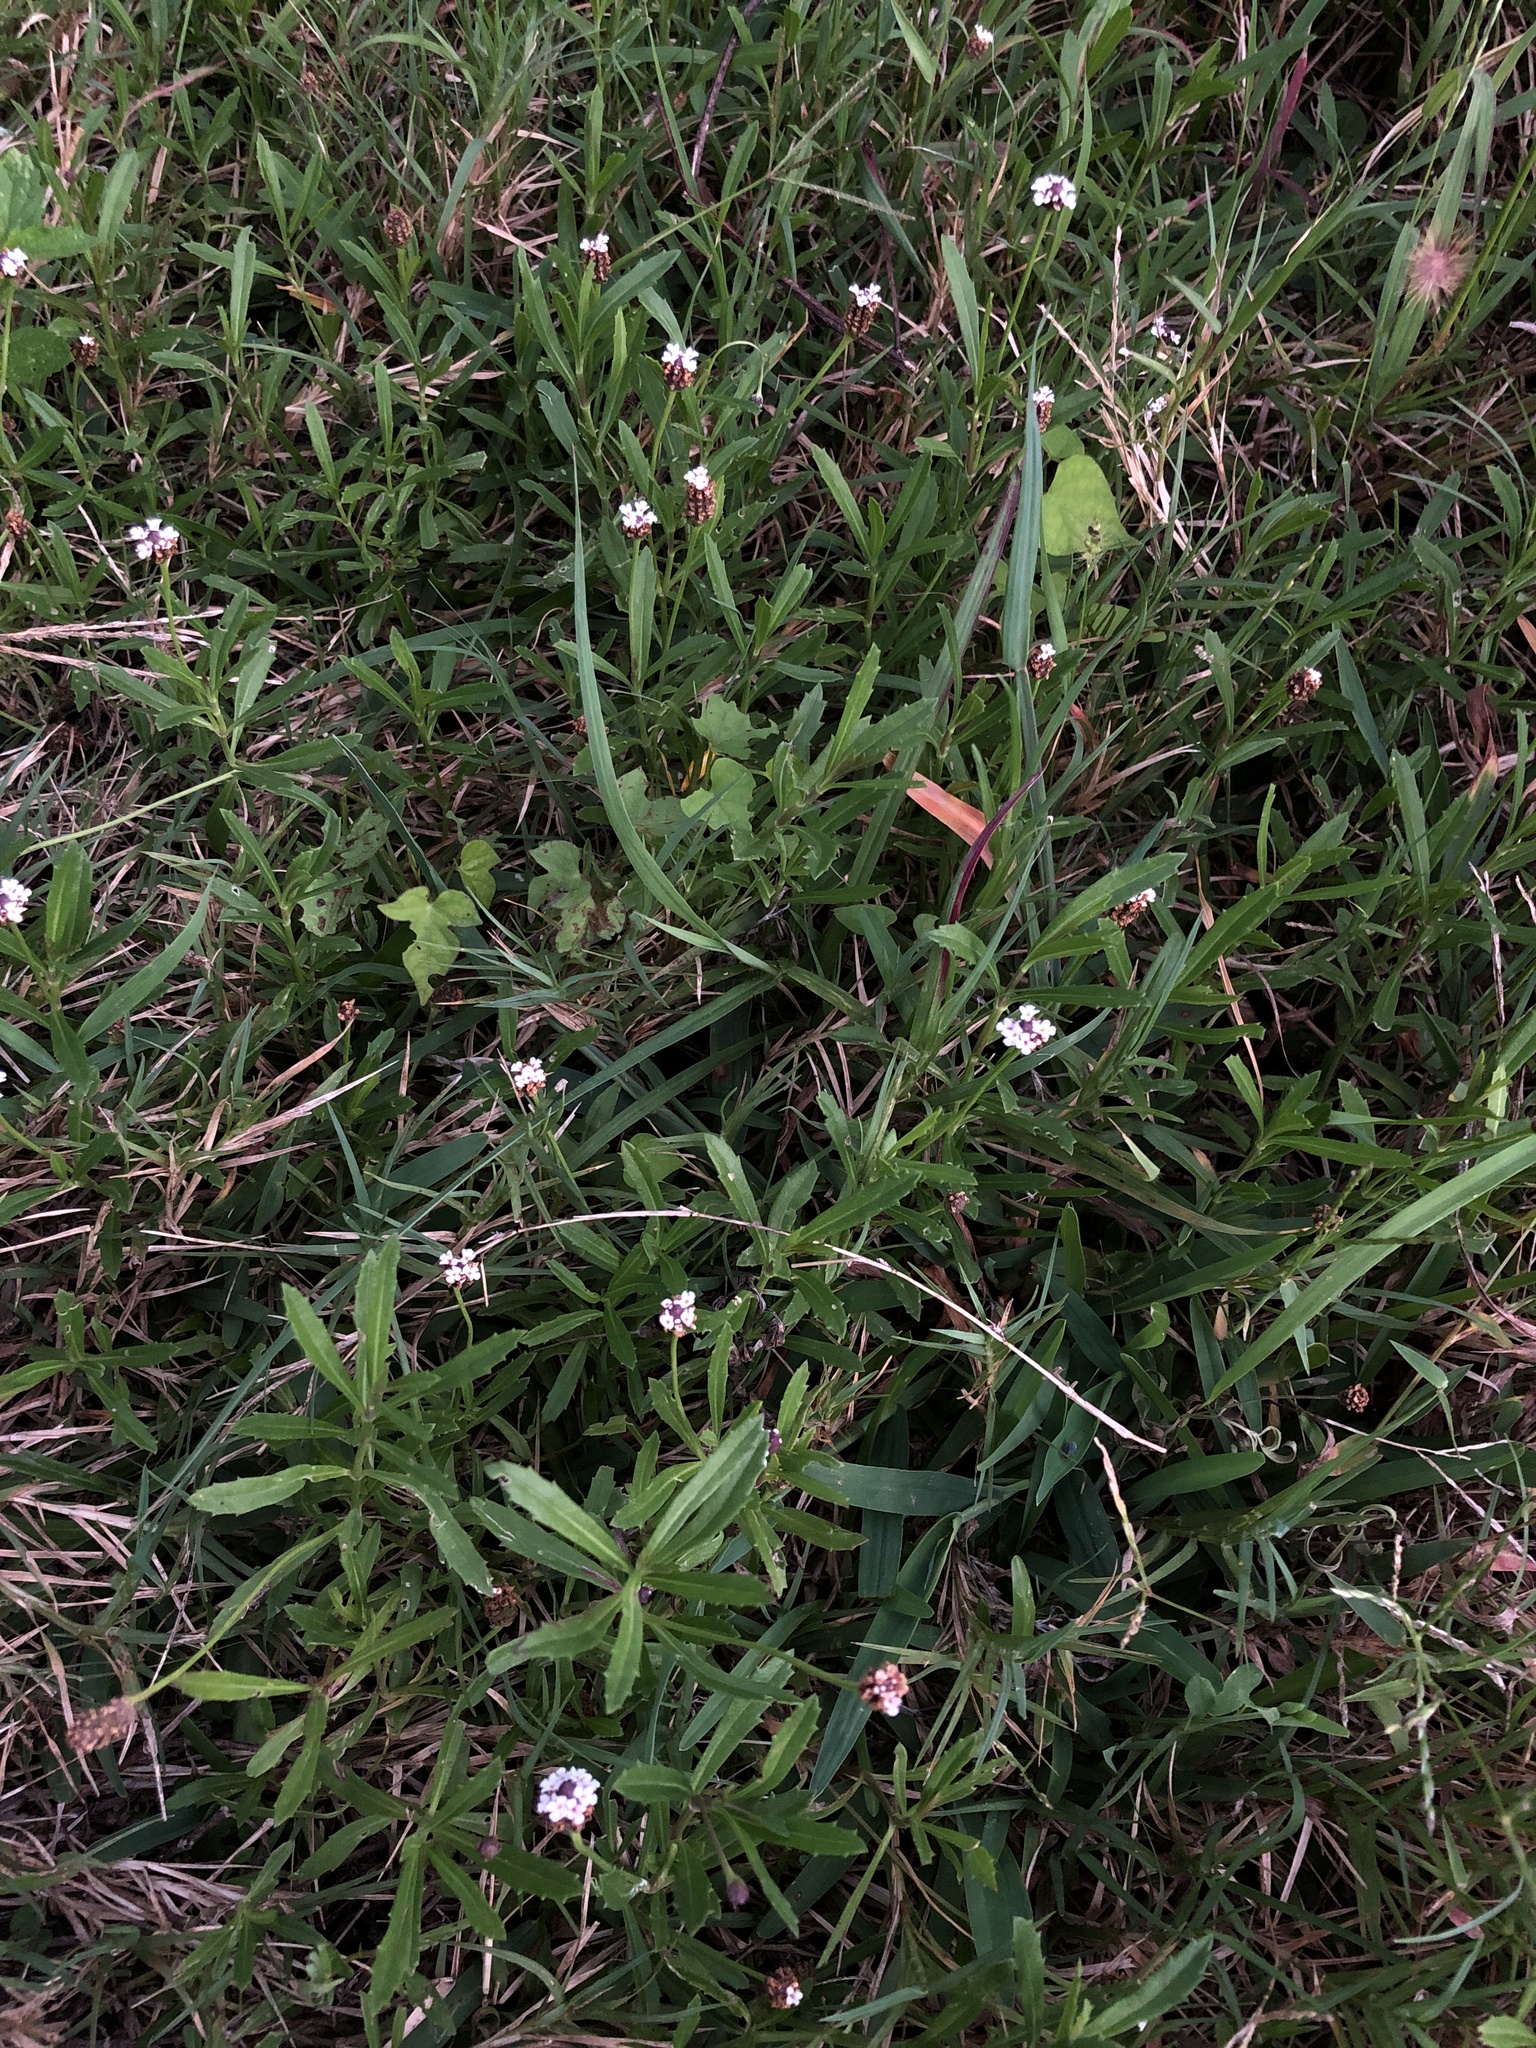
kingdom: Plantae
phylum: Tracheophyta
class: Magnoliopsida
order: Lamiales
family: Verbenaceae
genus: Phyla
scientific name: Phyla nodiflora
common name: Frogfruit
